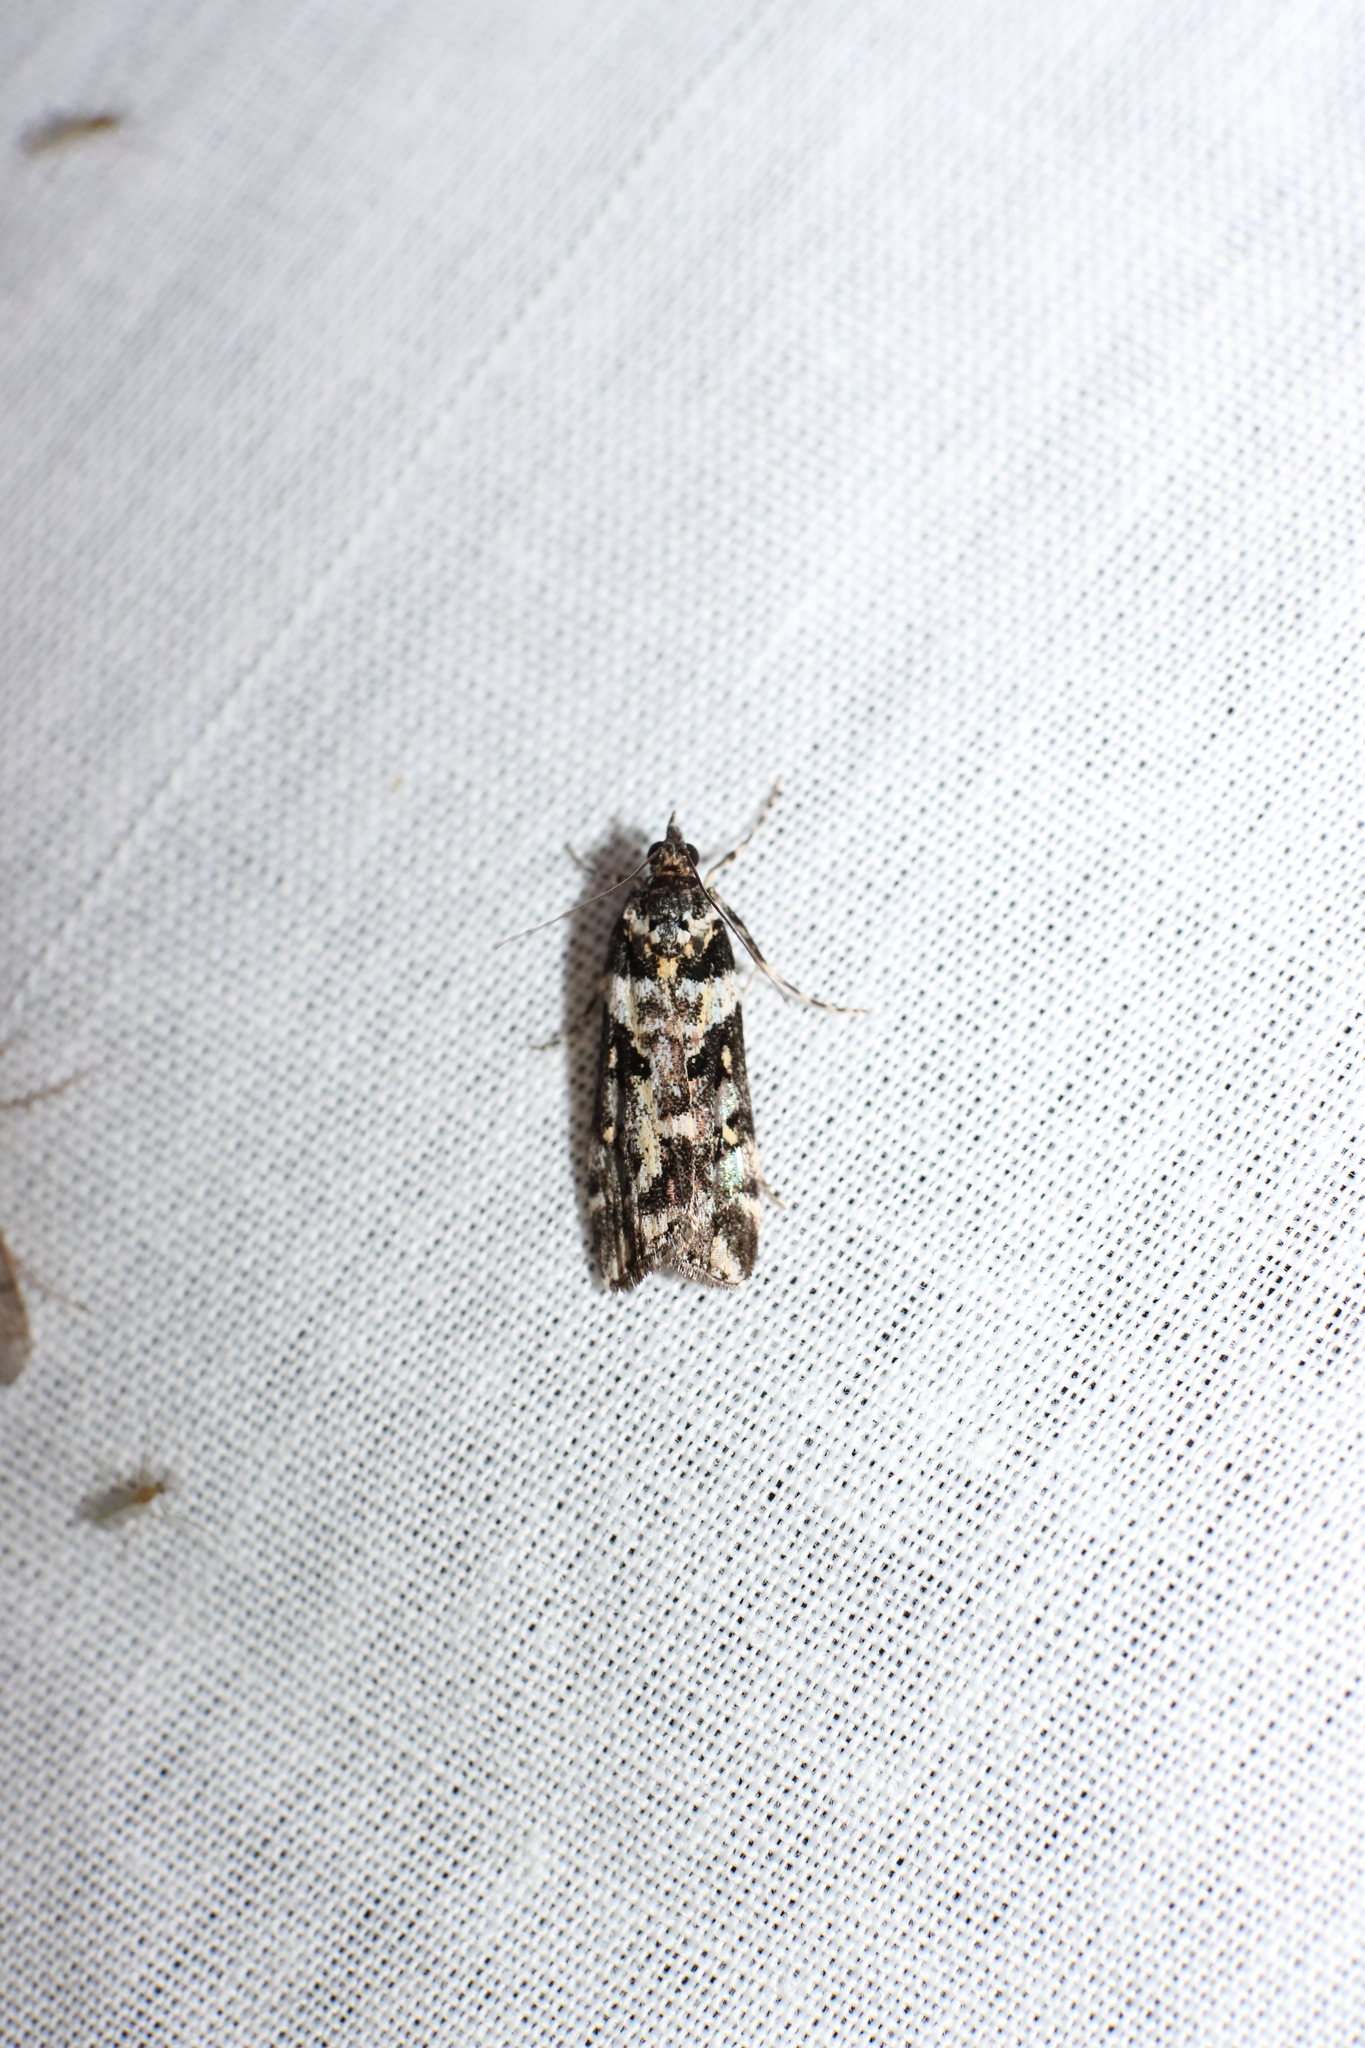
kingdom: Animalia
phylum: Arthropoda
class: Insecta
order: Lepidoptera
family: Crambidae
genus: Eudonia
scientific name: Eudonia diphtheralis
